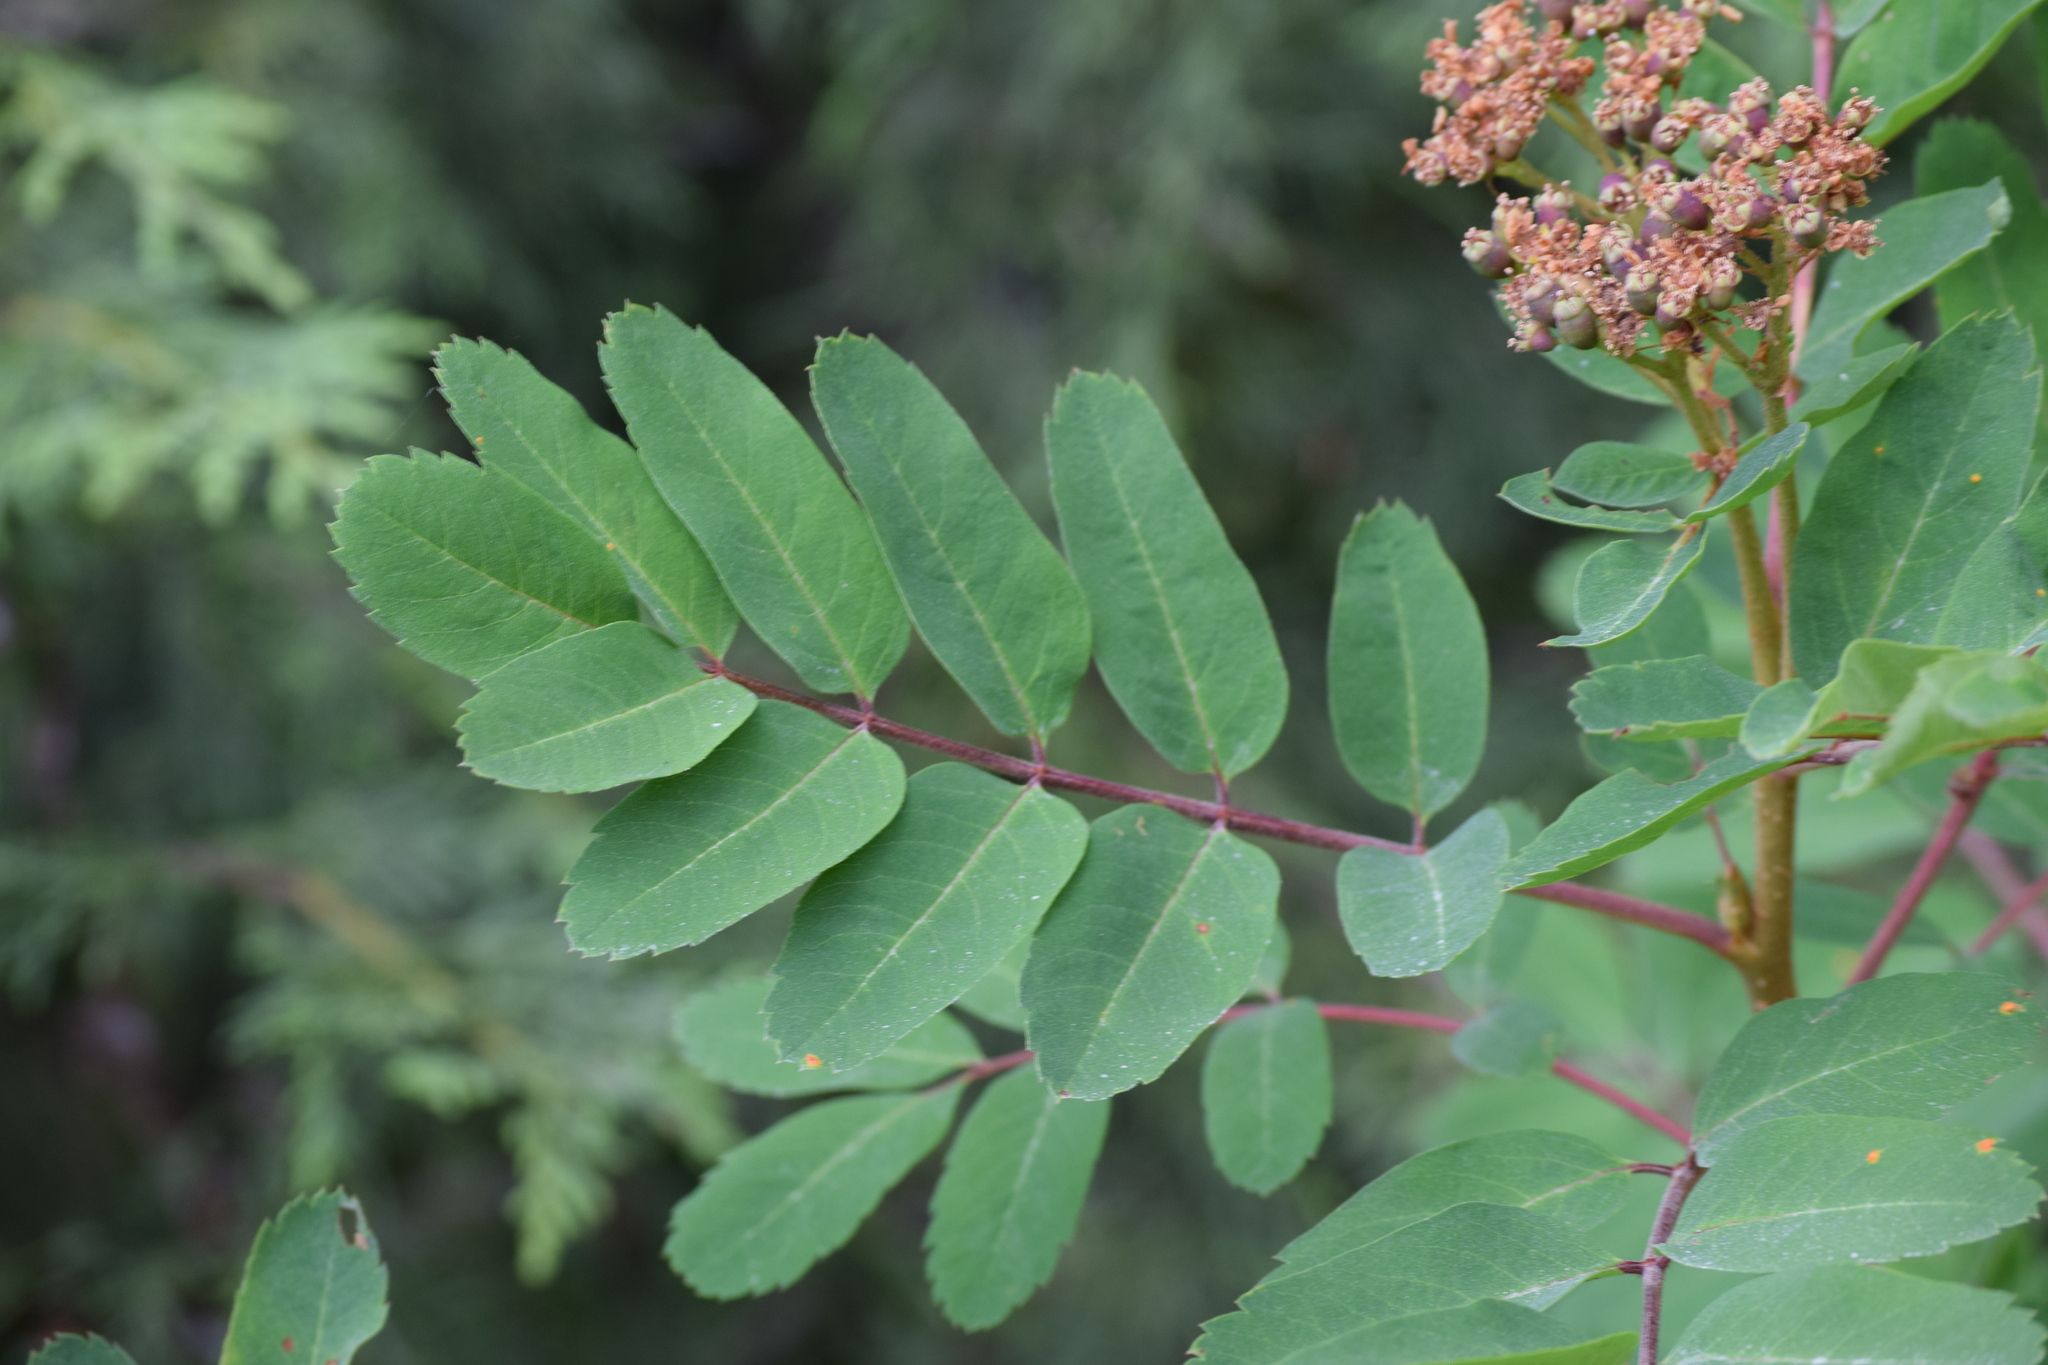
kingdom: Plantae
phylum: Tracheophyta
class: Magnoliopsida
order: Rosales
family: Rosaceae
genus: Sorbus
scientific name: Sorbus sitchensis
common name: Sitka mountain-ash
